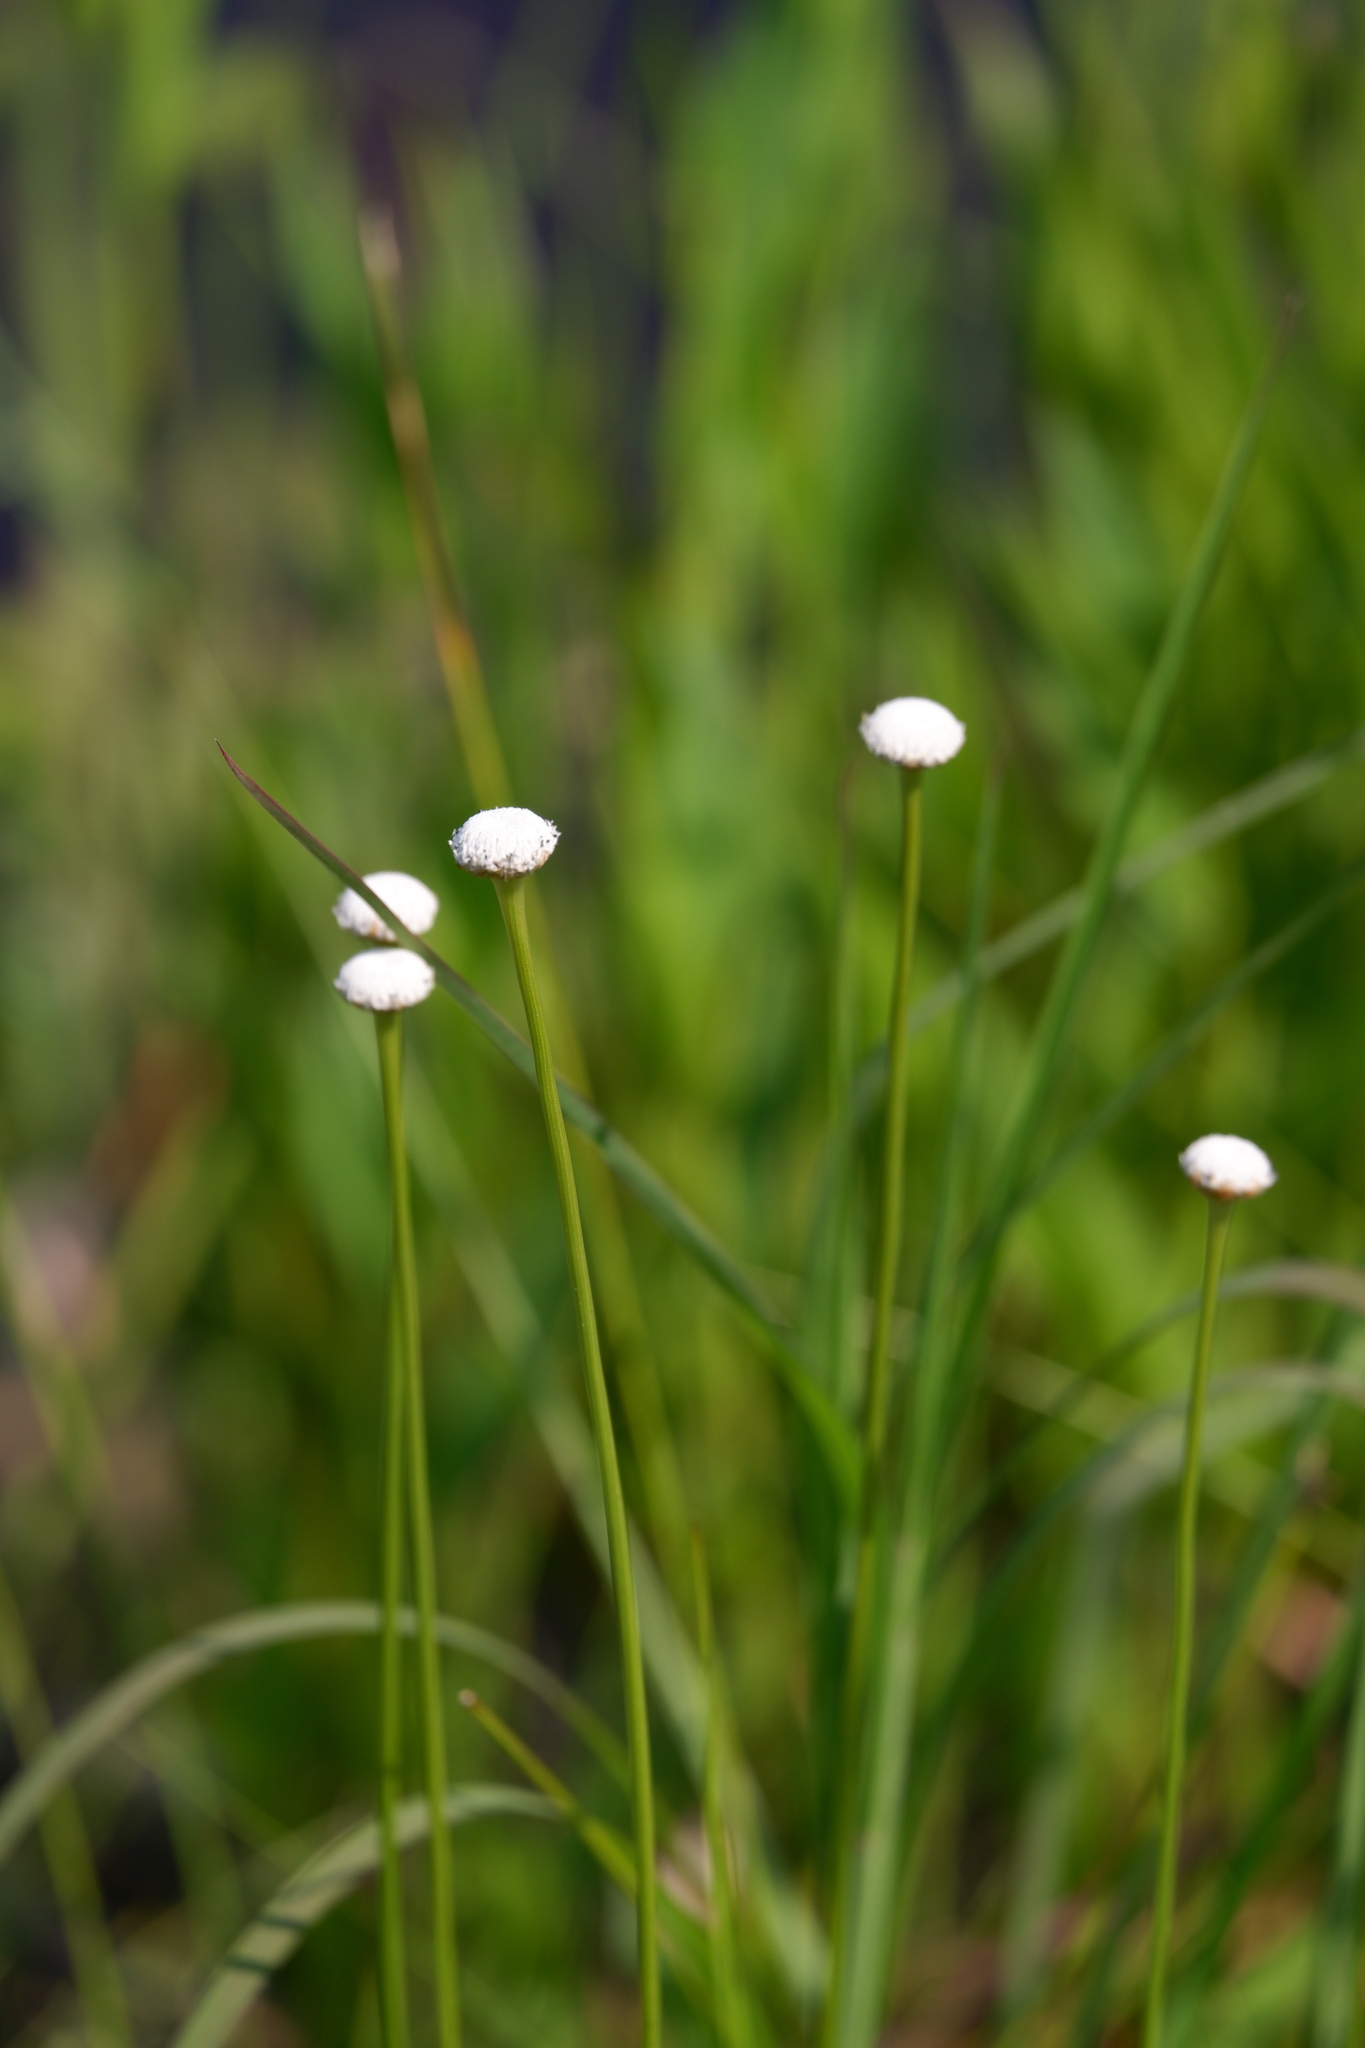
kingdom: Plantae
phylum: Tracheophyta
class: Liliopsida
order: Poales
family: Eriocaulaceae
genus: Eriocaulon
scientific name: Eriocaulon decangulare
